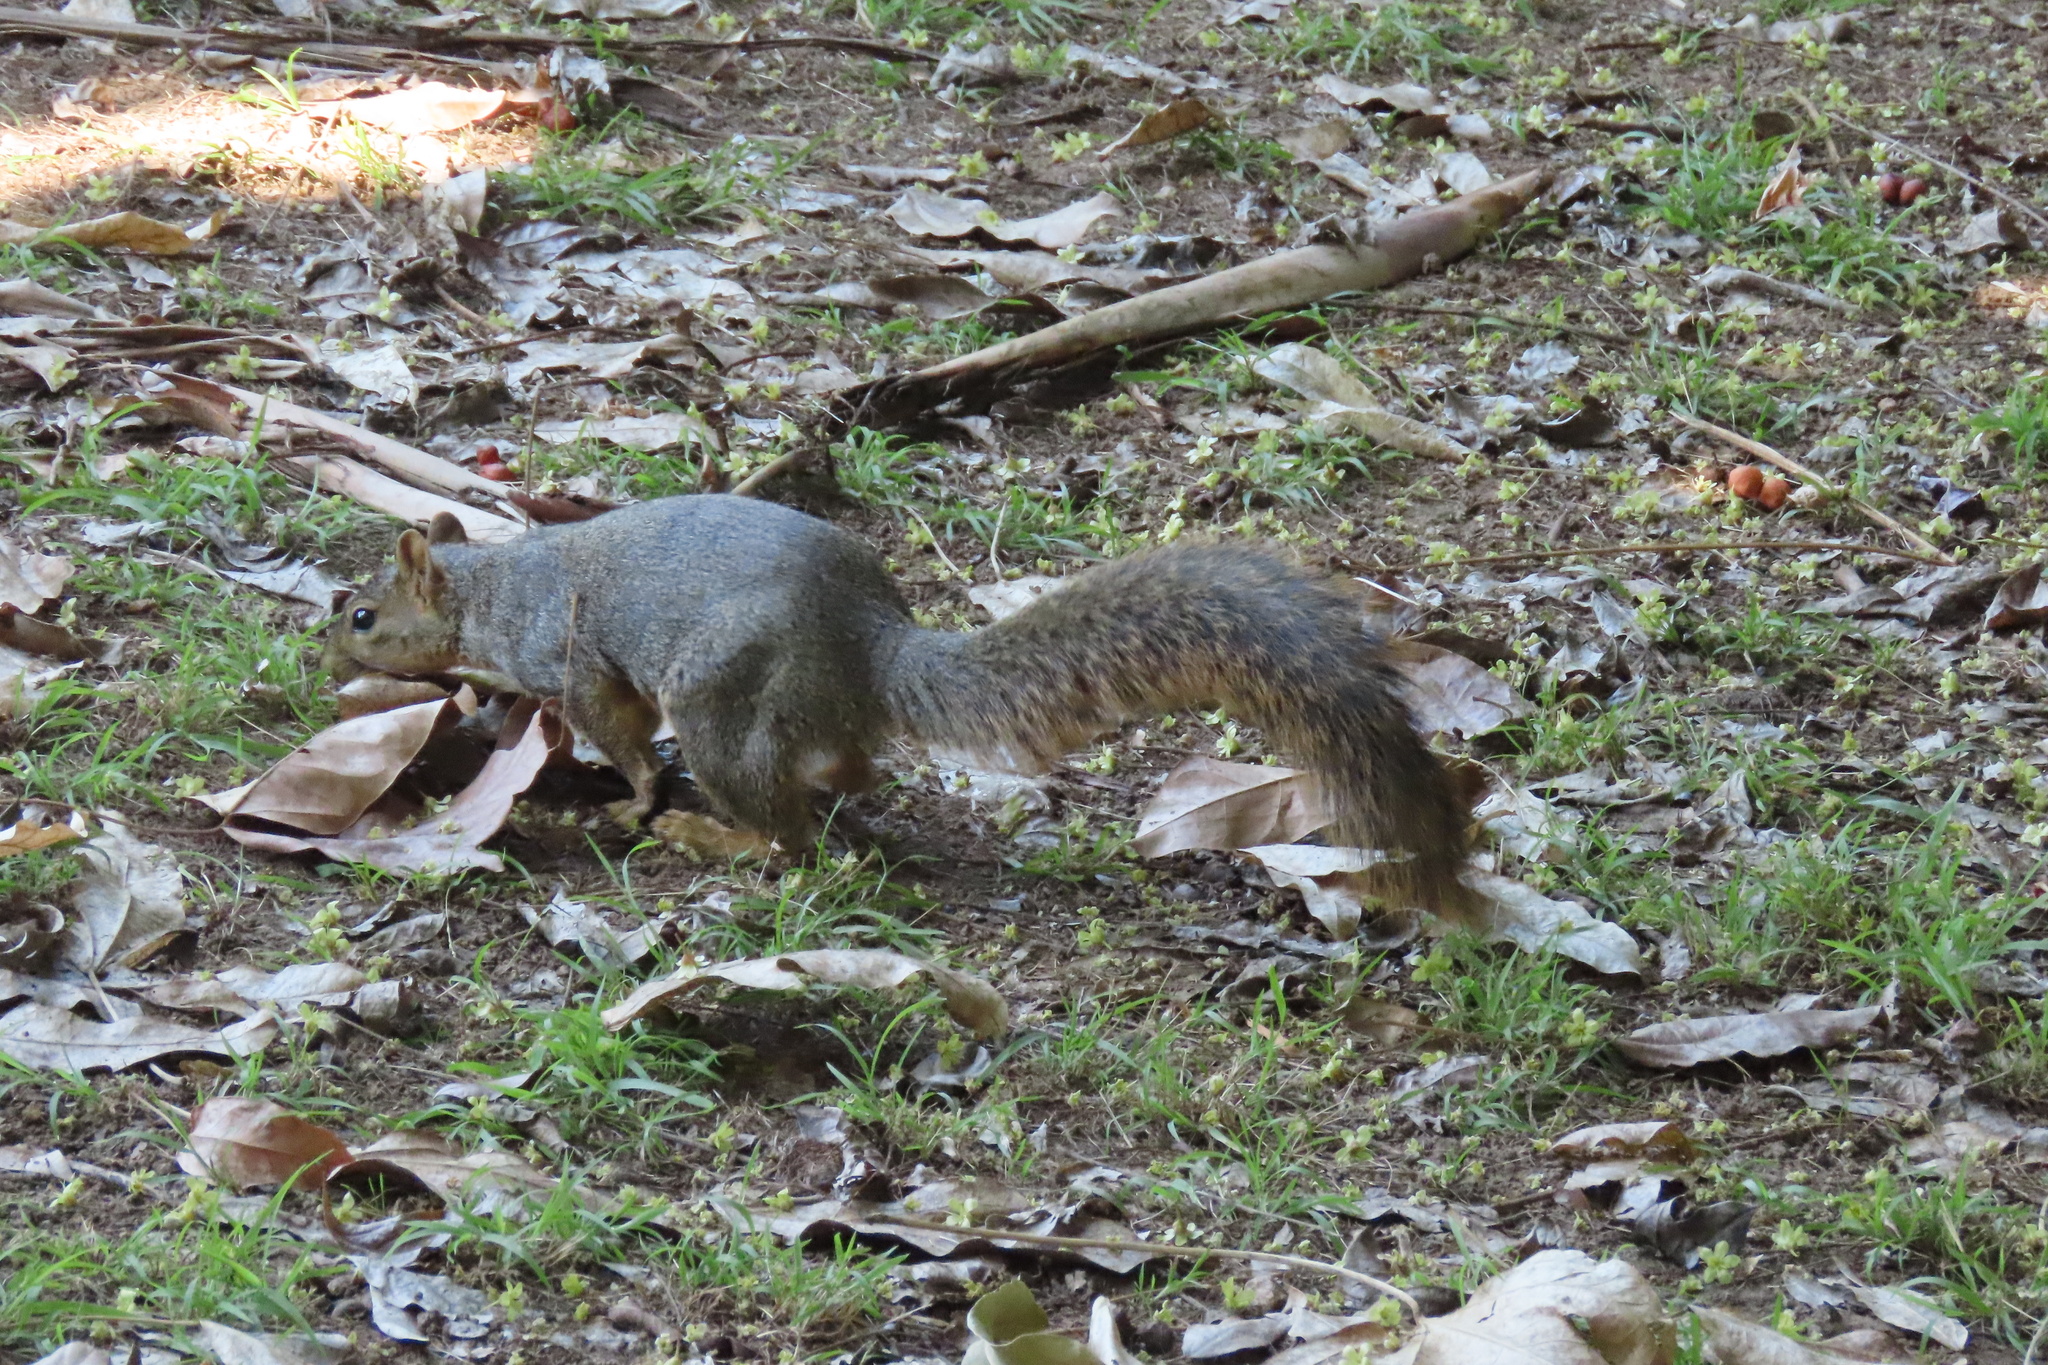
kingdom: Animalia
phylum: Chordata
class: Mammalia
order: Rodentia
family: Sciuridae
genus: Sciurus
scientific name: Sciurus niger
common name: Fox squirrel
